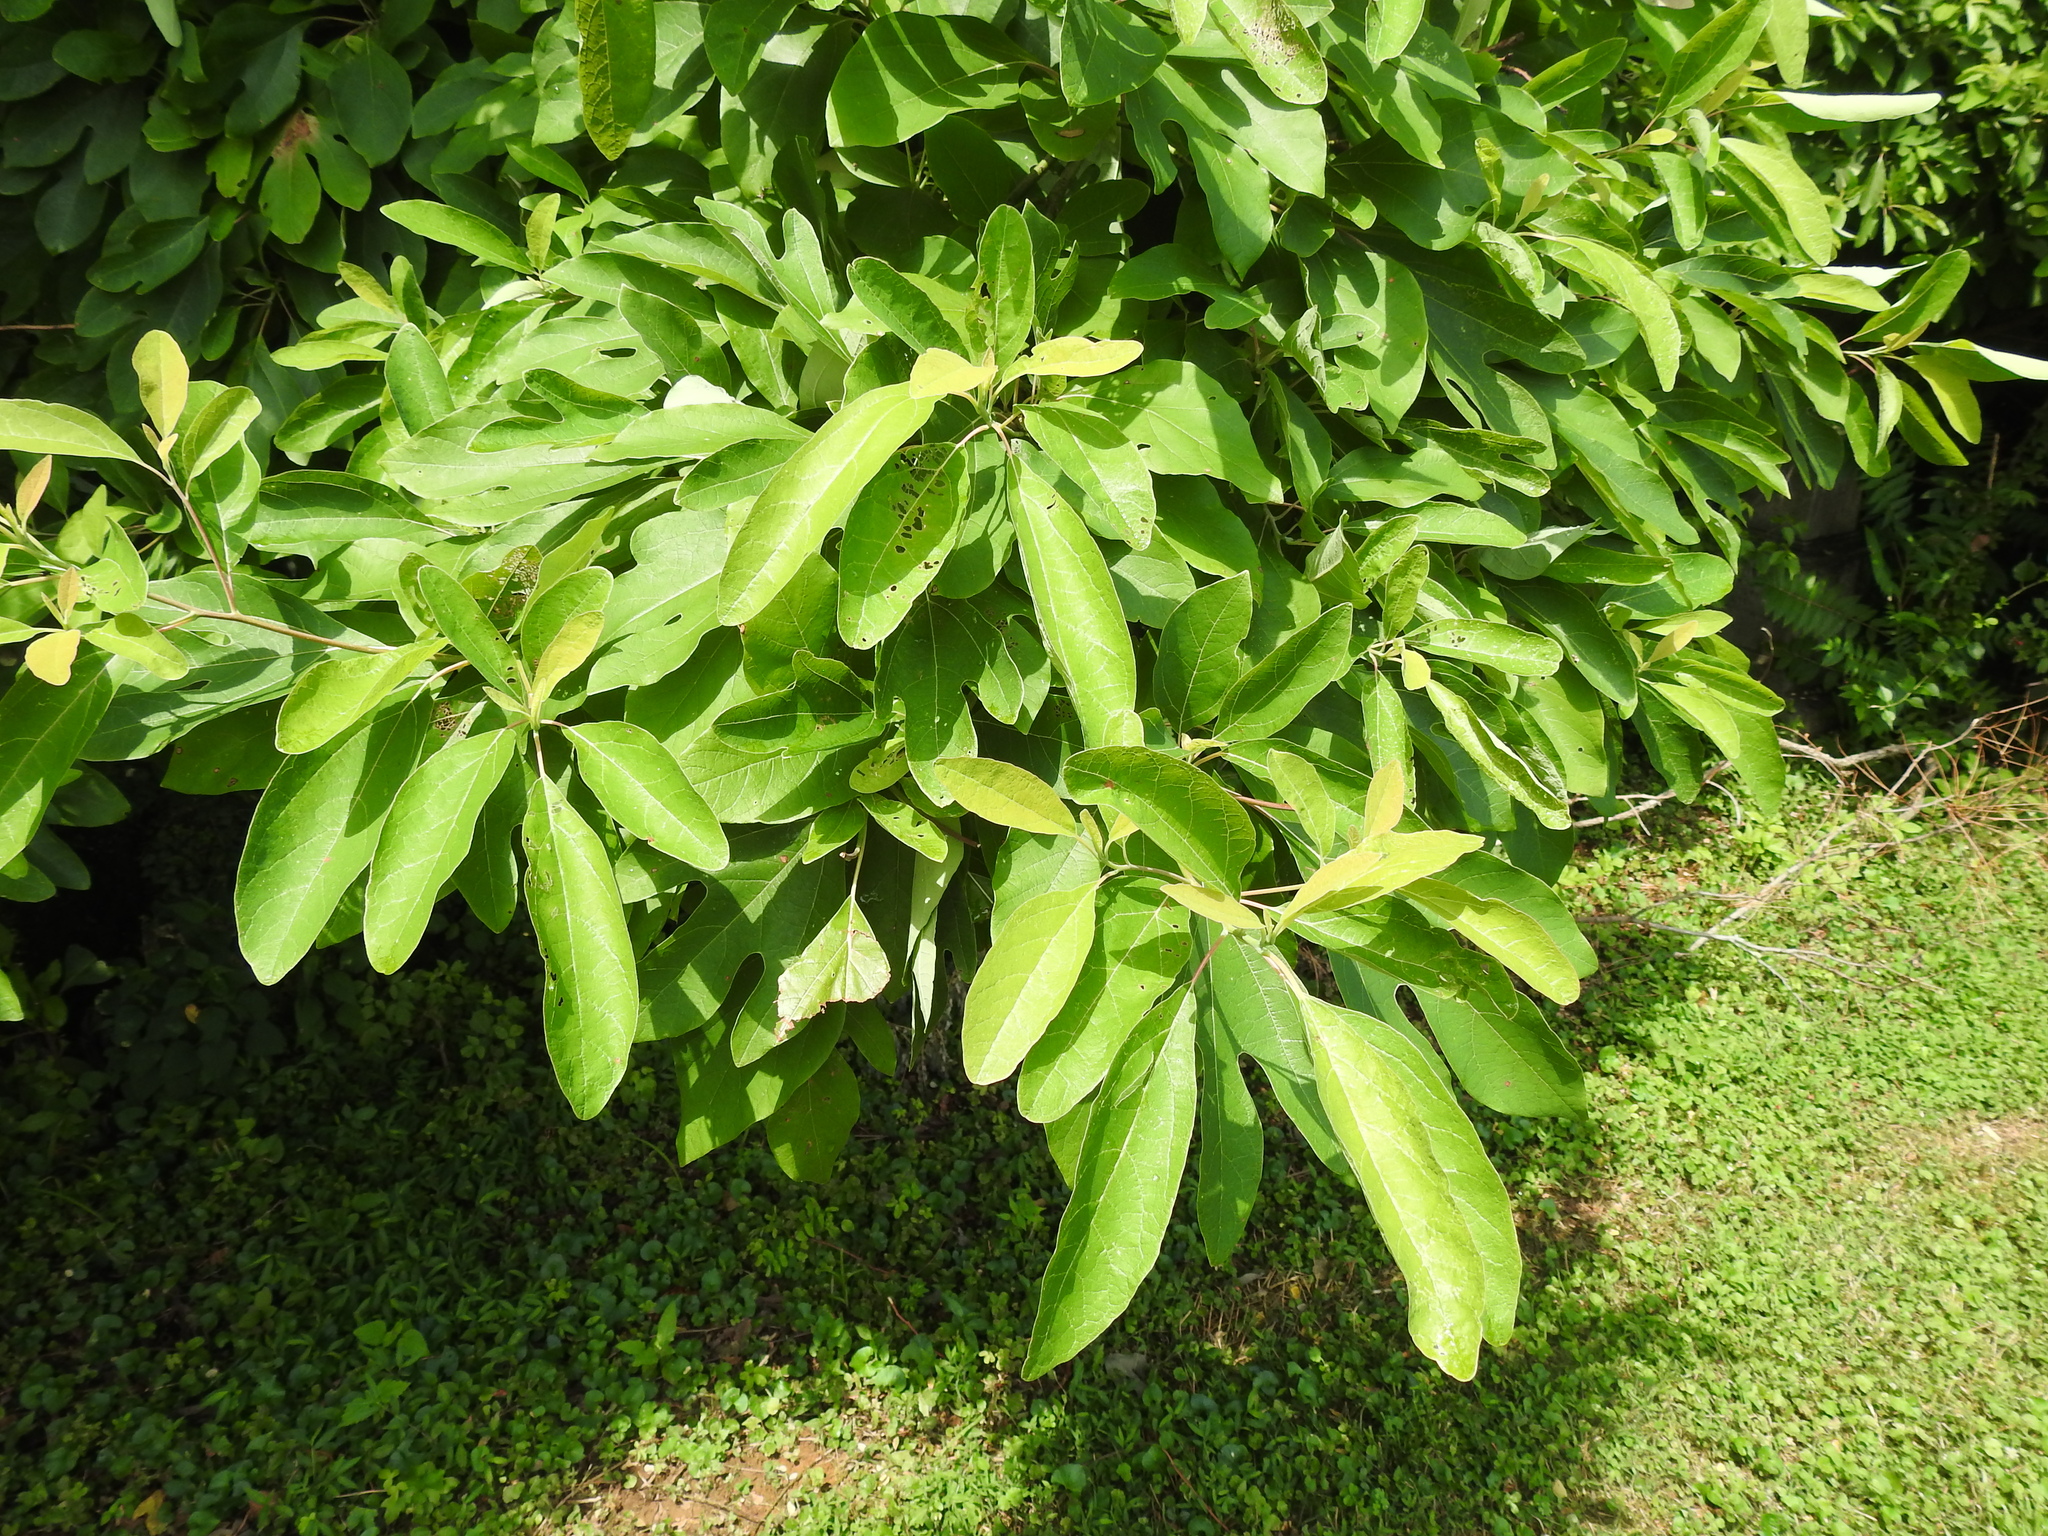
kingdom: Plantae
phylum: Tracheophyta
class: Magnoliopsida
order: Laurales
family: Lauraceae
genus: Sassafras
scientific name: Sassafras albidum
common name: Sassafras
